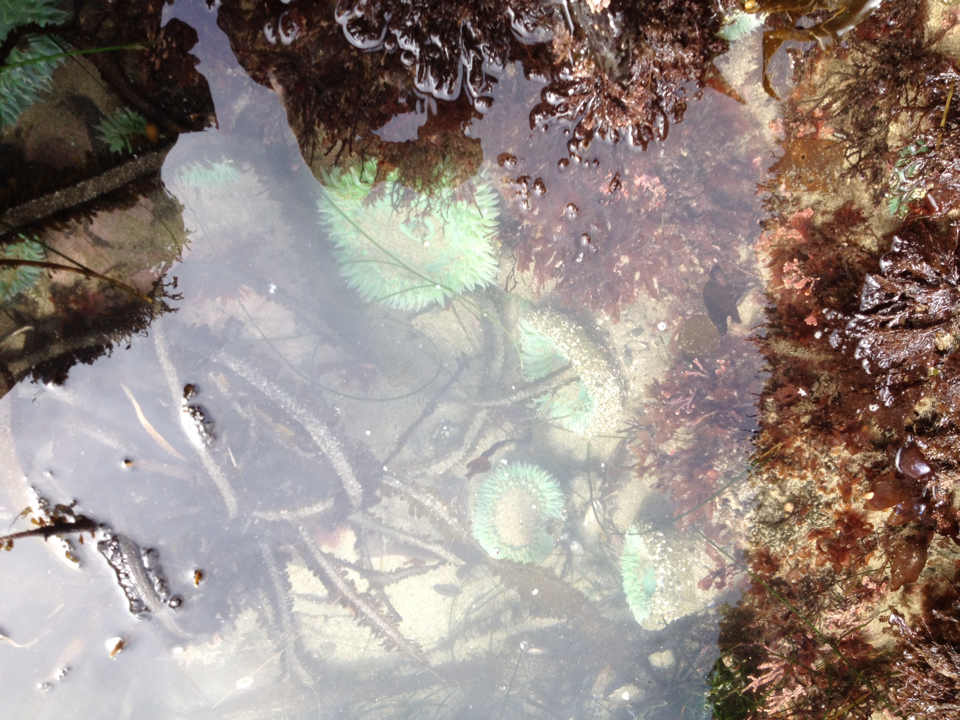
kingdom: Animalia
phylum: Cnidaria
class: Anthozoa
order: Actiniaria
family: Actiniidae
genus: Anthopleura
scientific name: Anthopleura xanthogrammica
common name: Giant green anemone
